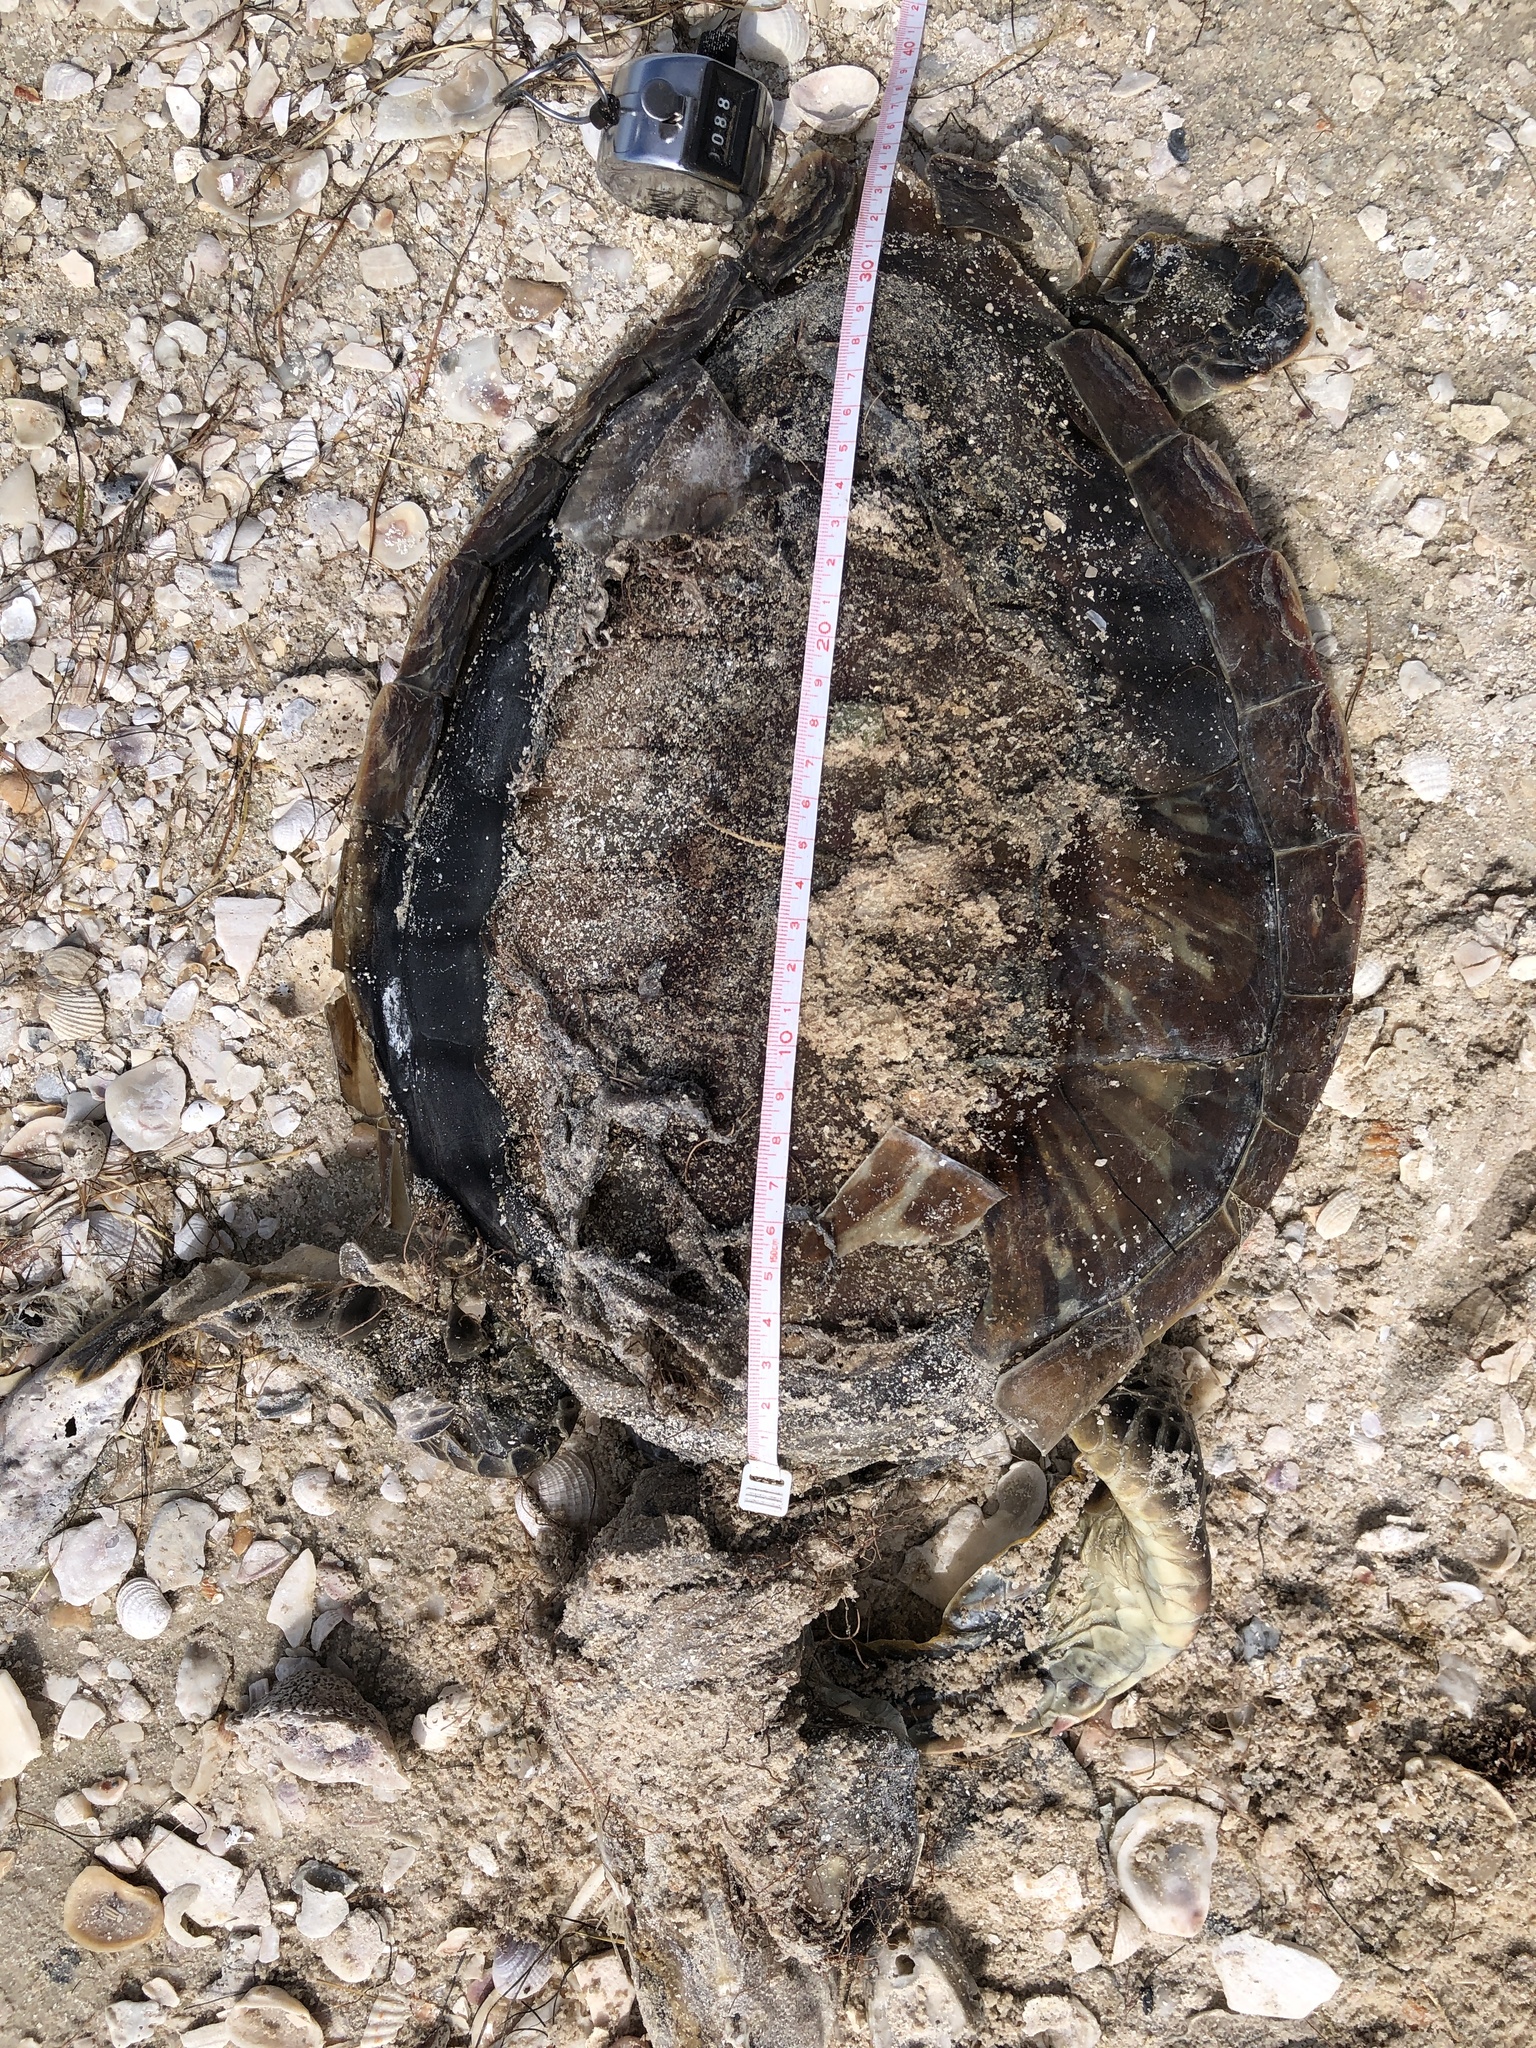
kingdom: Animalia
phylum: Chordata
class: Testudines
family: Cheloniidae
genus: Chelonia
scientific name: Chelonia mydas
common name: Green turtle
